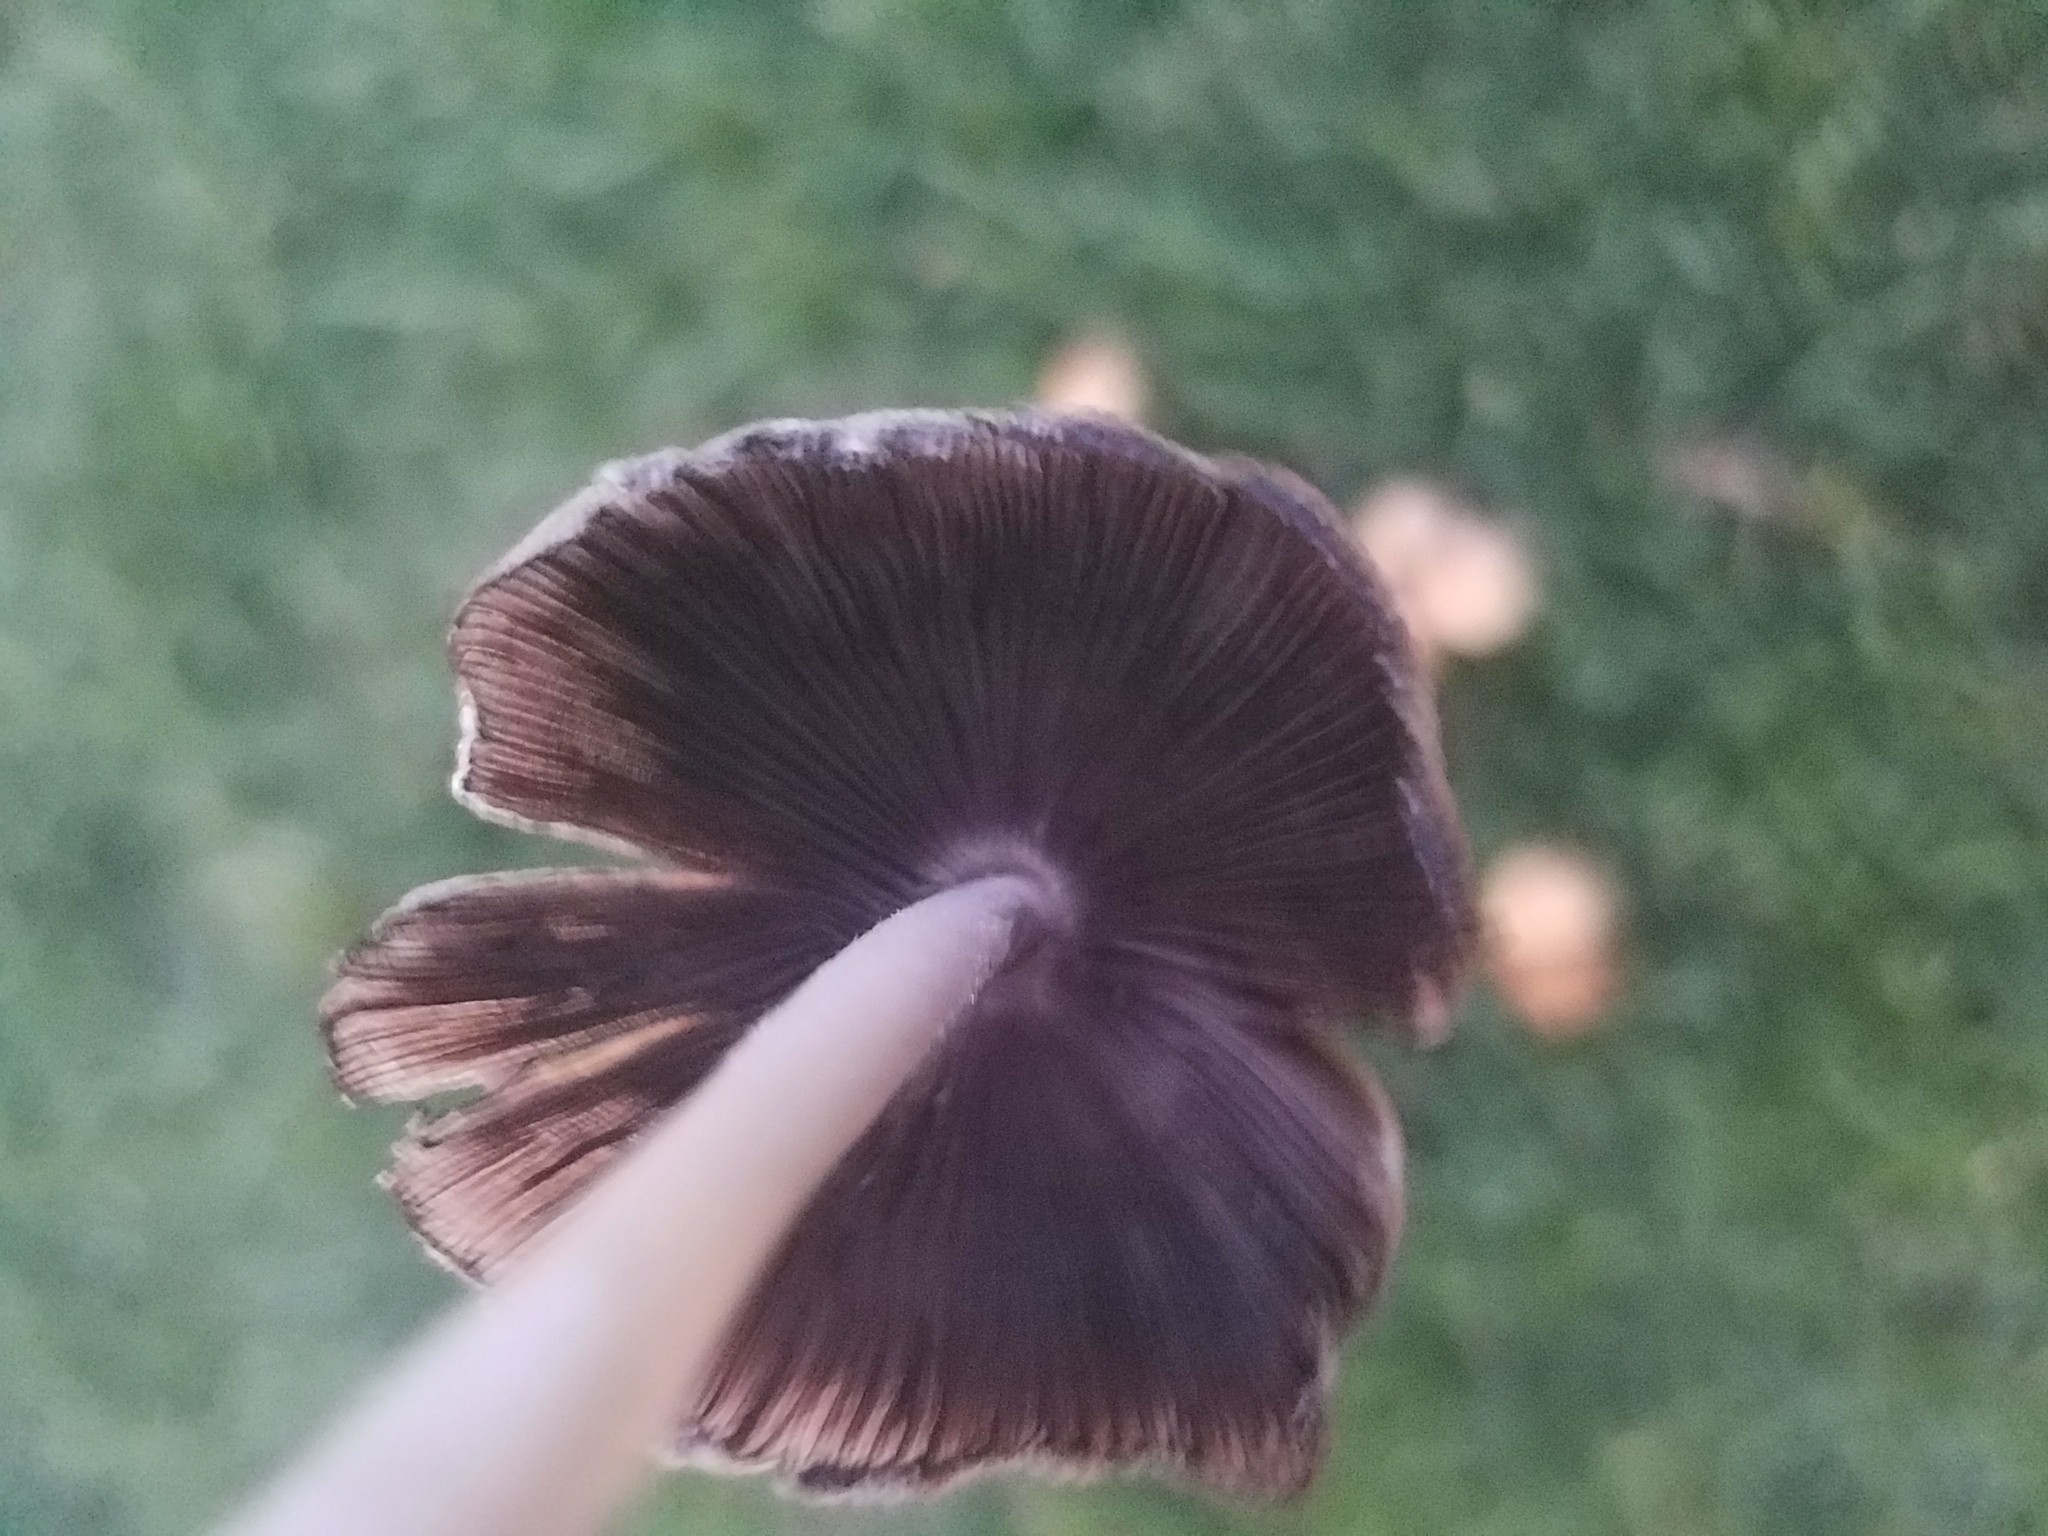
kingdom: Fungi
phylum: Basidiomycota
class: Agaricomycetes
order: Agaricales
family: Marasmiaceae
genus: Marasmius
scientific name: Marasmius oreades
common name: Fairy ring champignon
